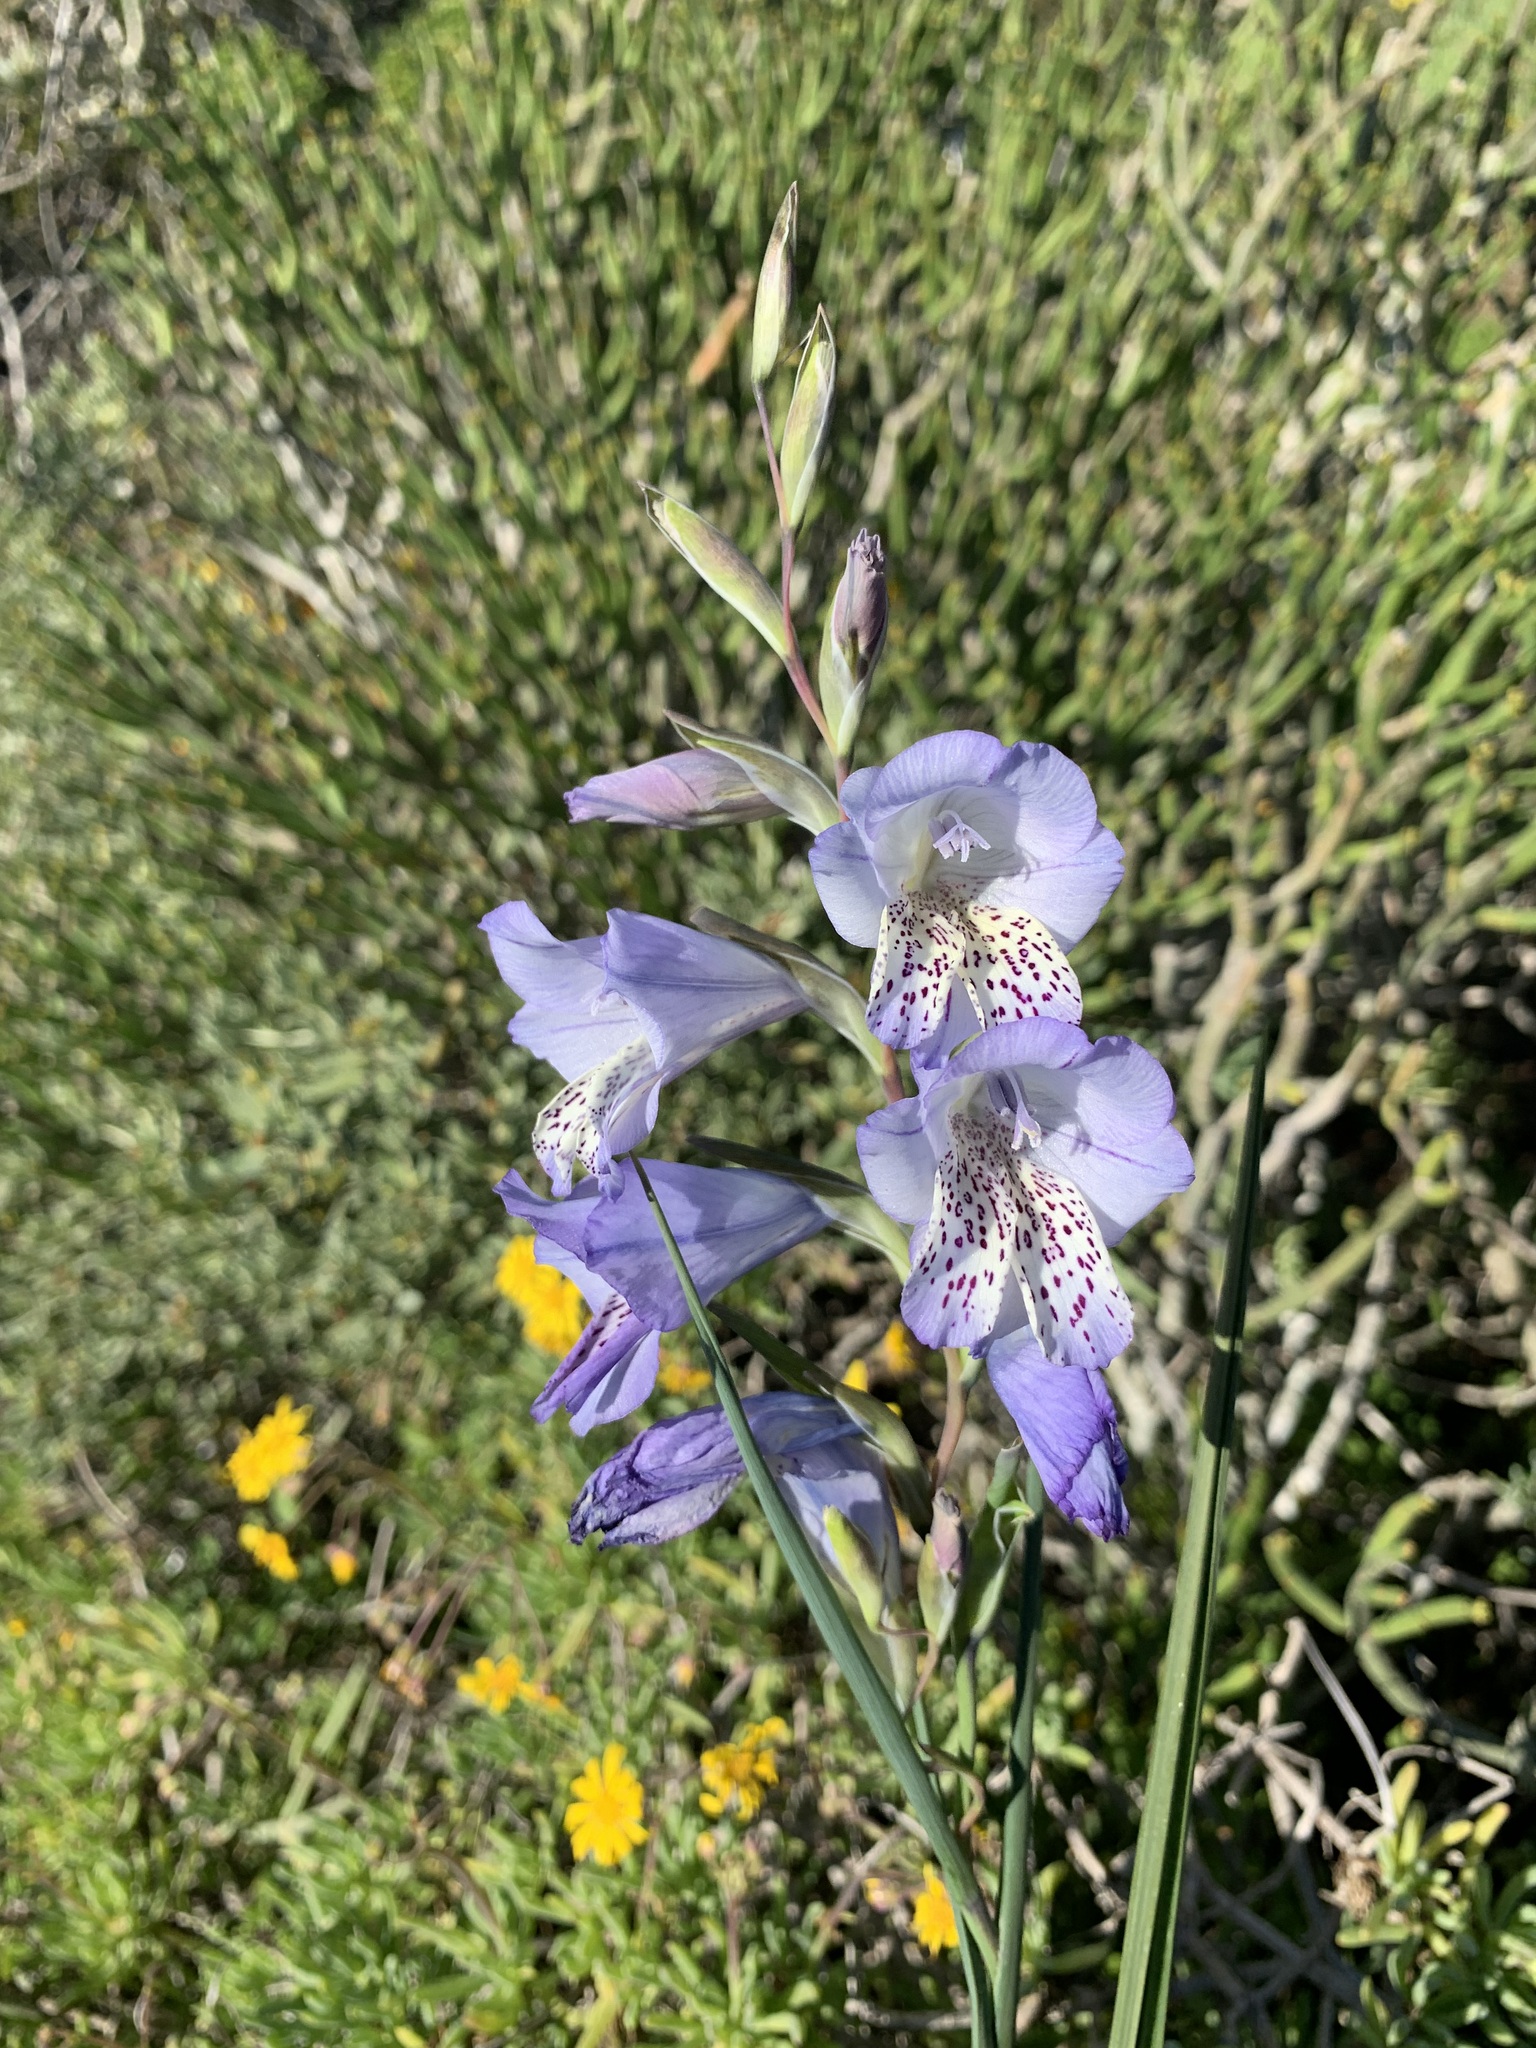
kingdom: Plantae
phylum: Tracheophyta
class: Liliopsida
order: Asparagales
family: Iridaceae
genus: Gladiolus
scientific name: Gladiolus caeruleus
